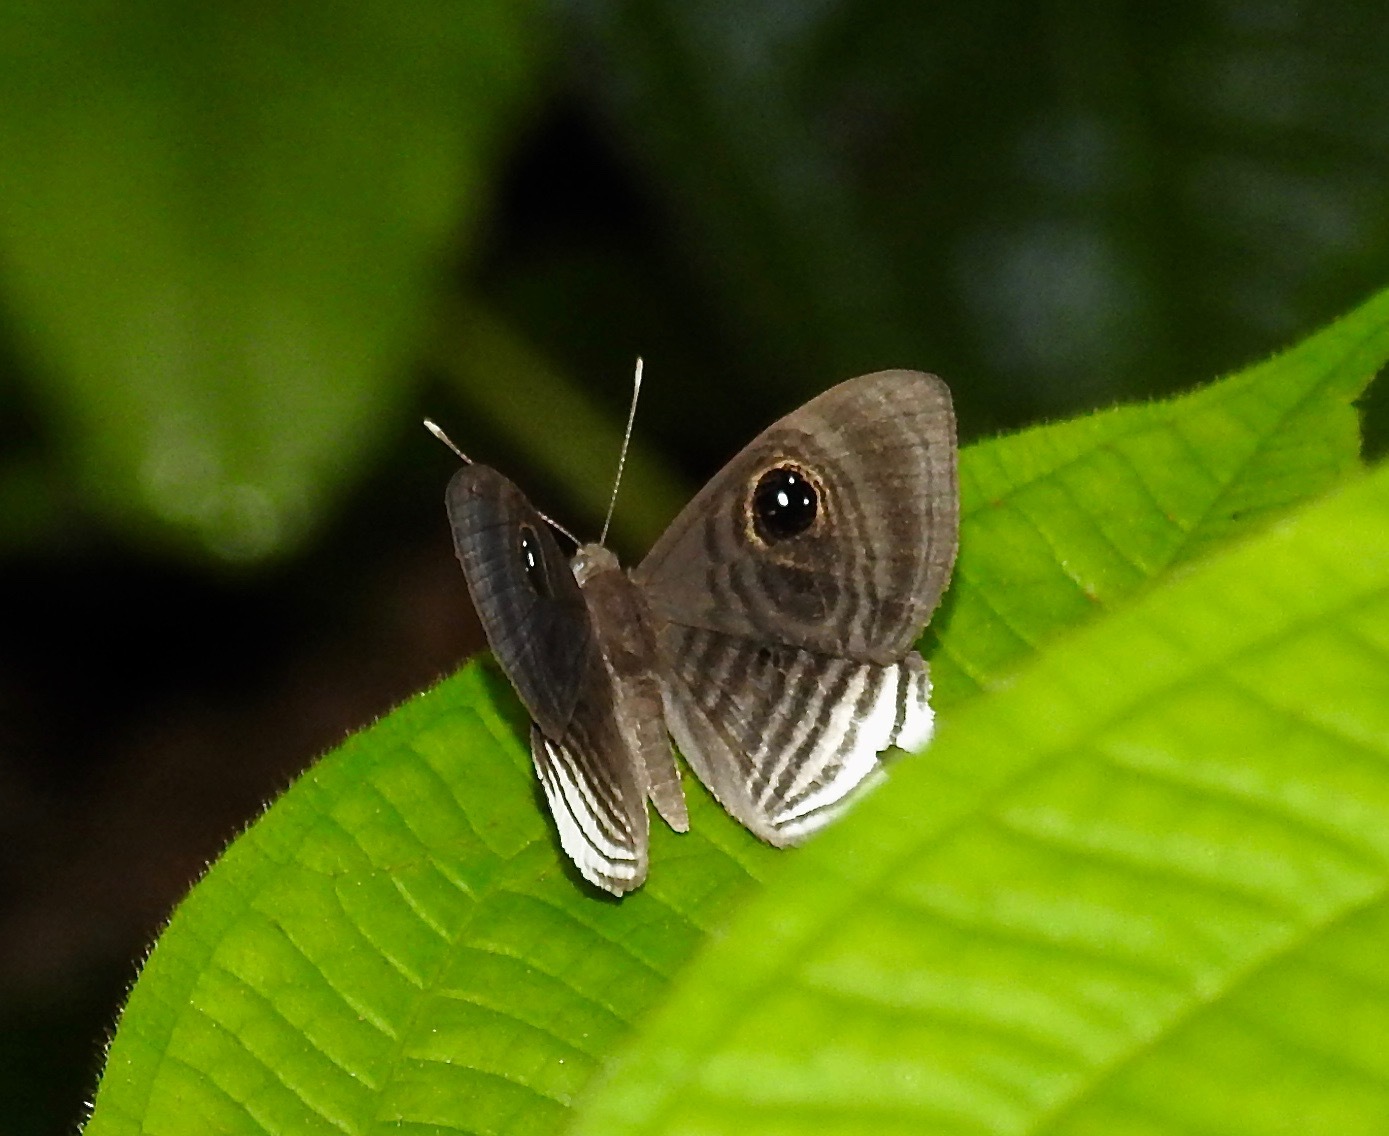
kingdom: Animalia
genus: Mesosemia
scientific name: Mesosemia melaene
